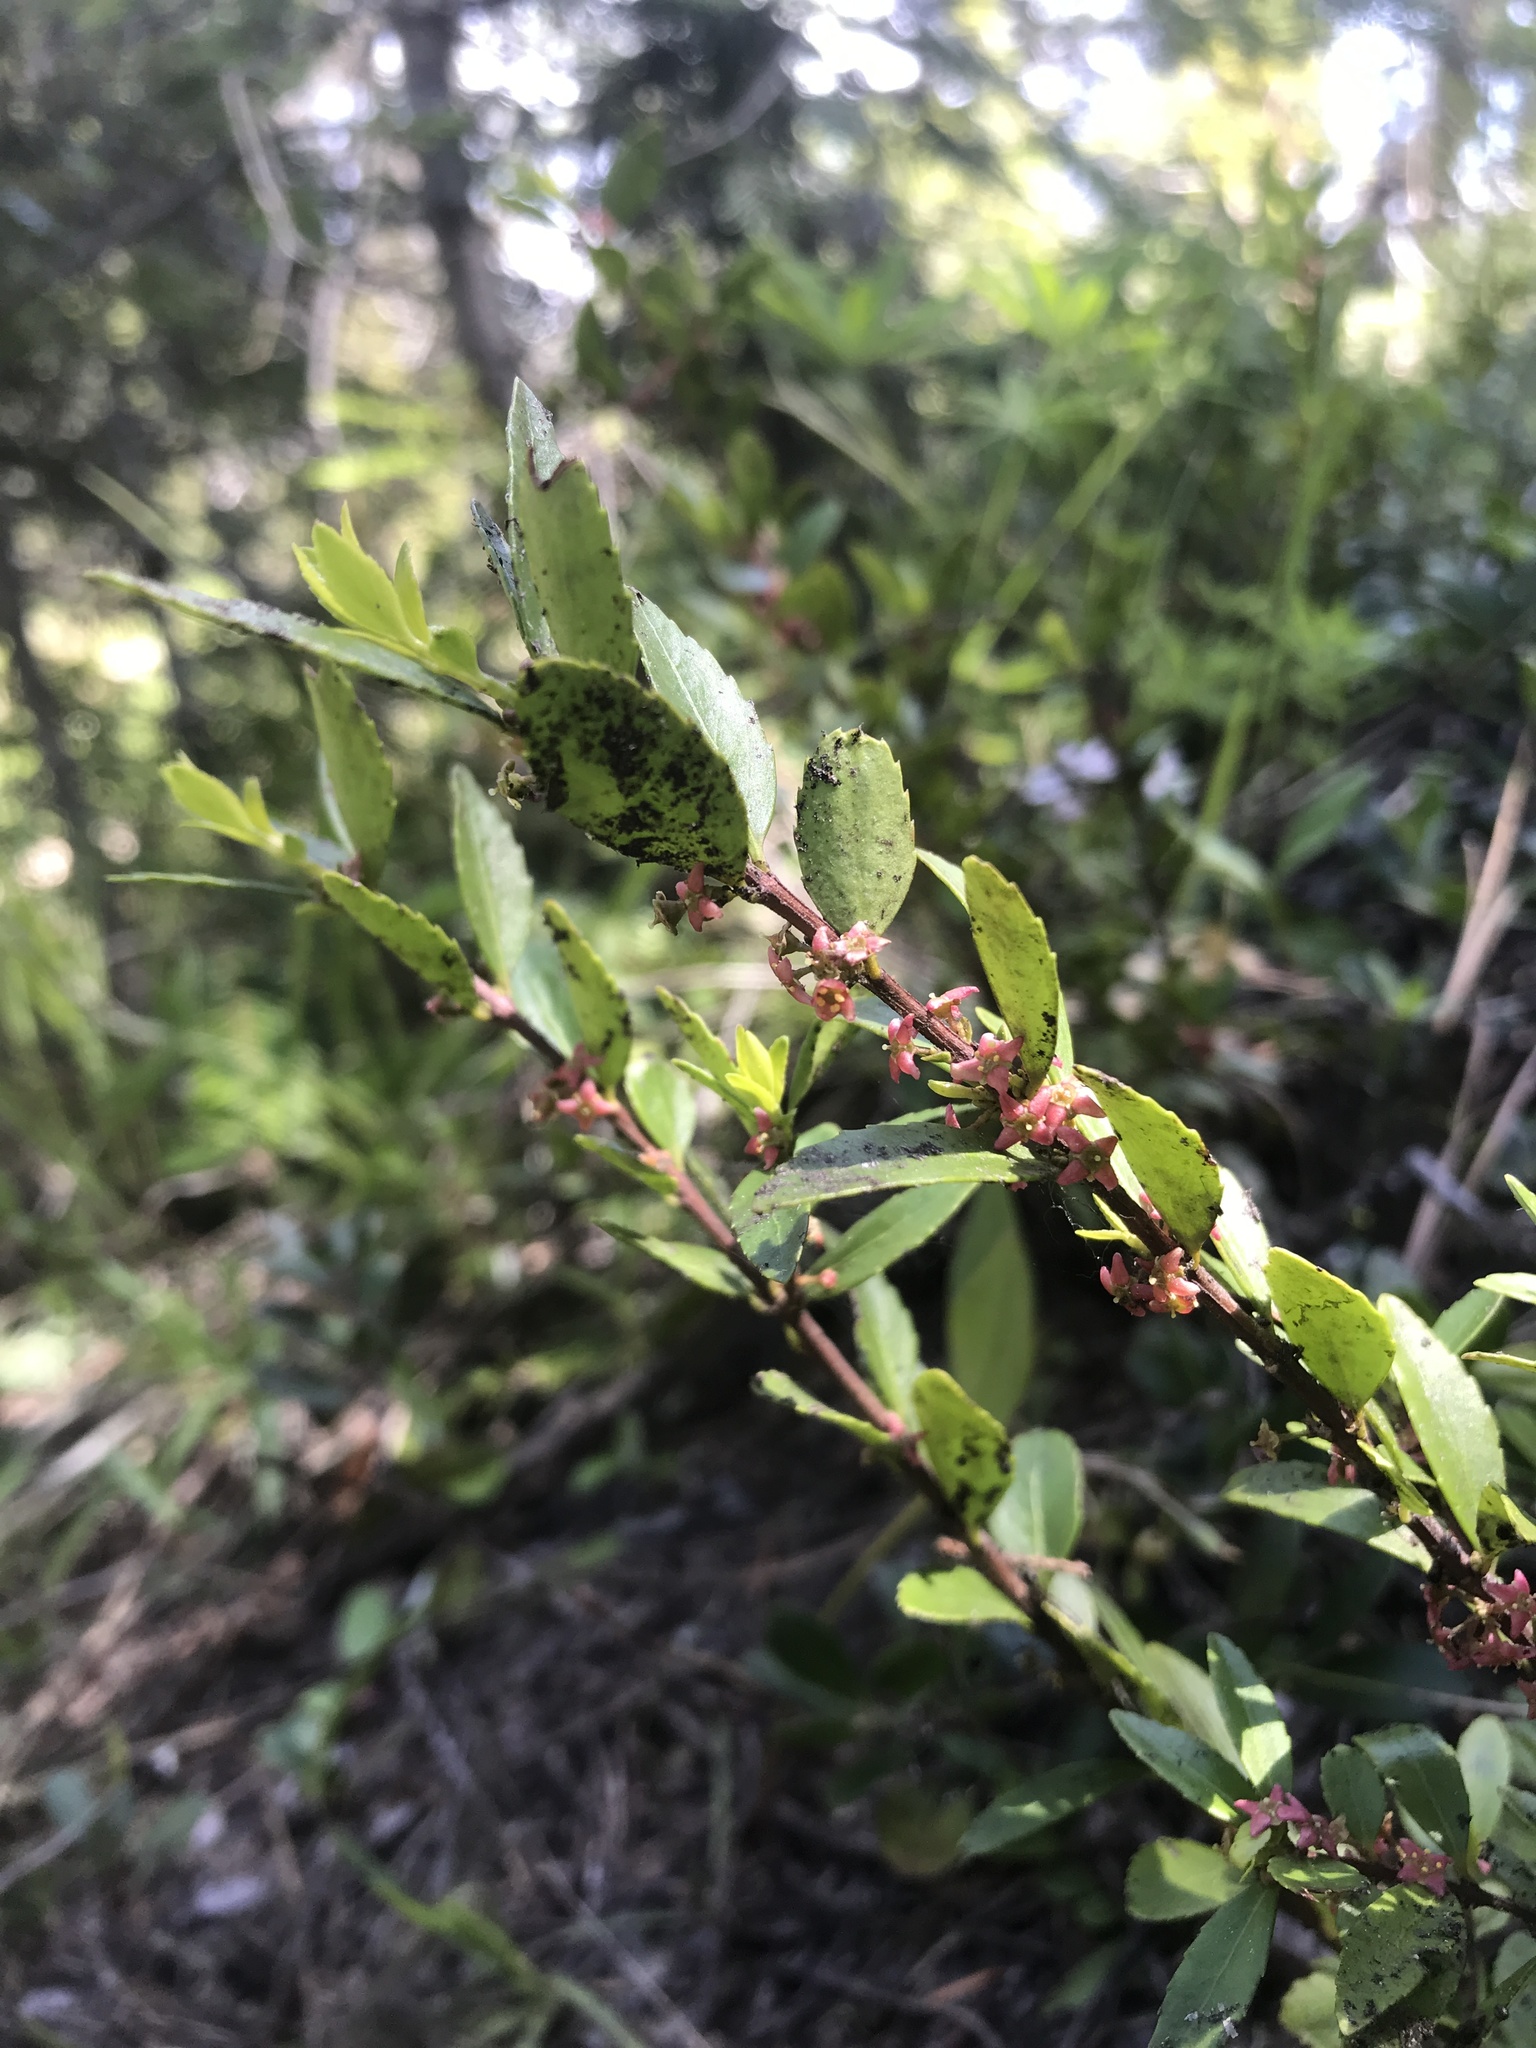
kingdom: Plantae
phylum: Tracheophyta
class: Magnoliopsida
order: Celastrales
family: Celastraceae
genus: Paxistima
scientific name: Paxistima myrsinites
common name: Mountain-lover
